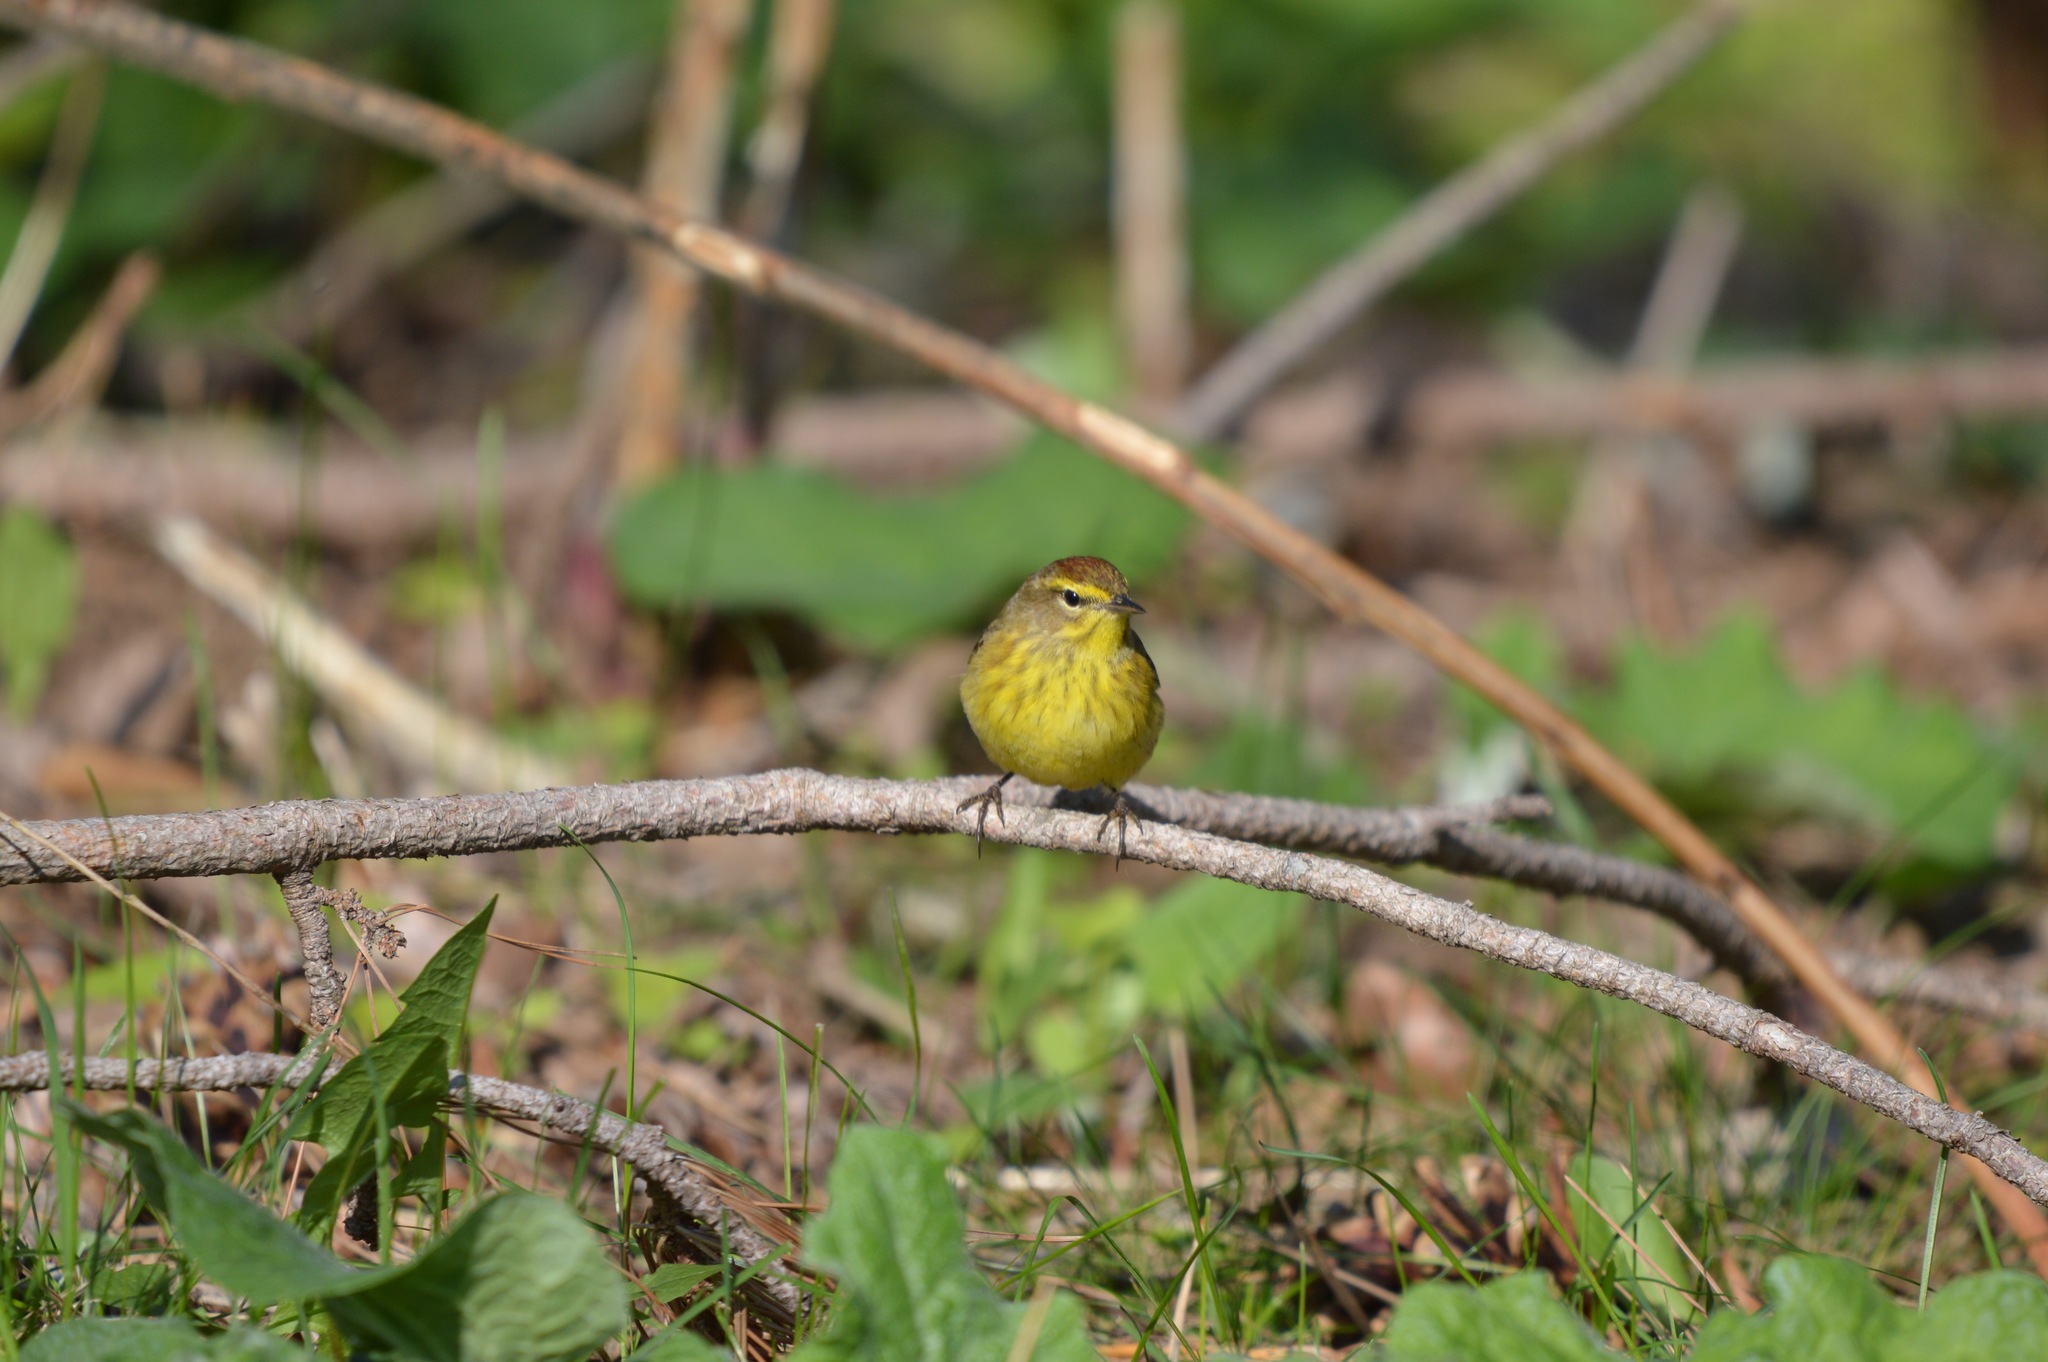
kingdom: Animalia
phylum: Chordata
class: Aves
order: Passeriformes
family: Parulidae
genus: Setophaga
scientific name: Setophaga palmarum
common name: Palm warbler
